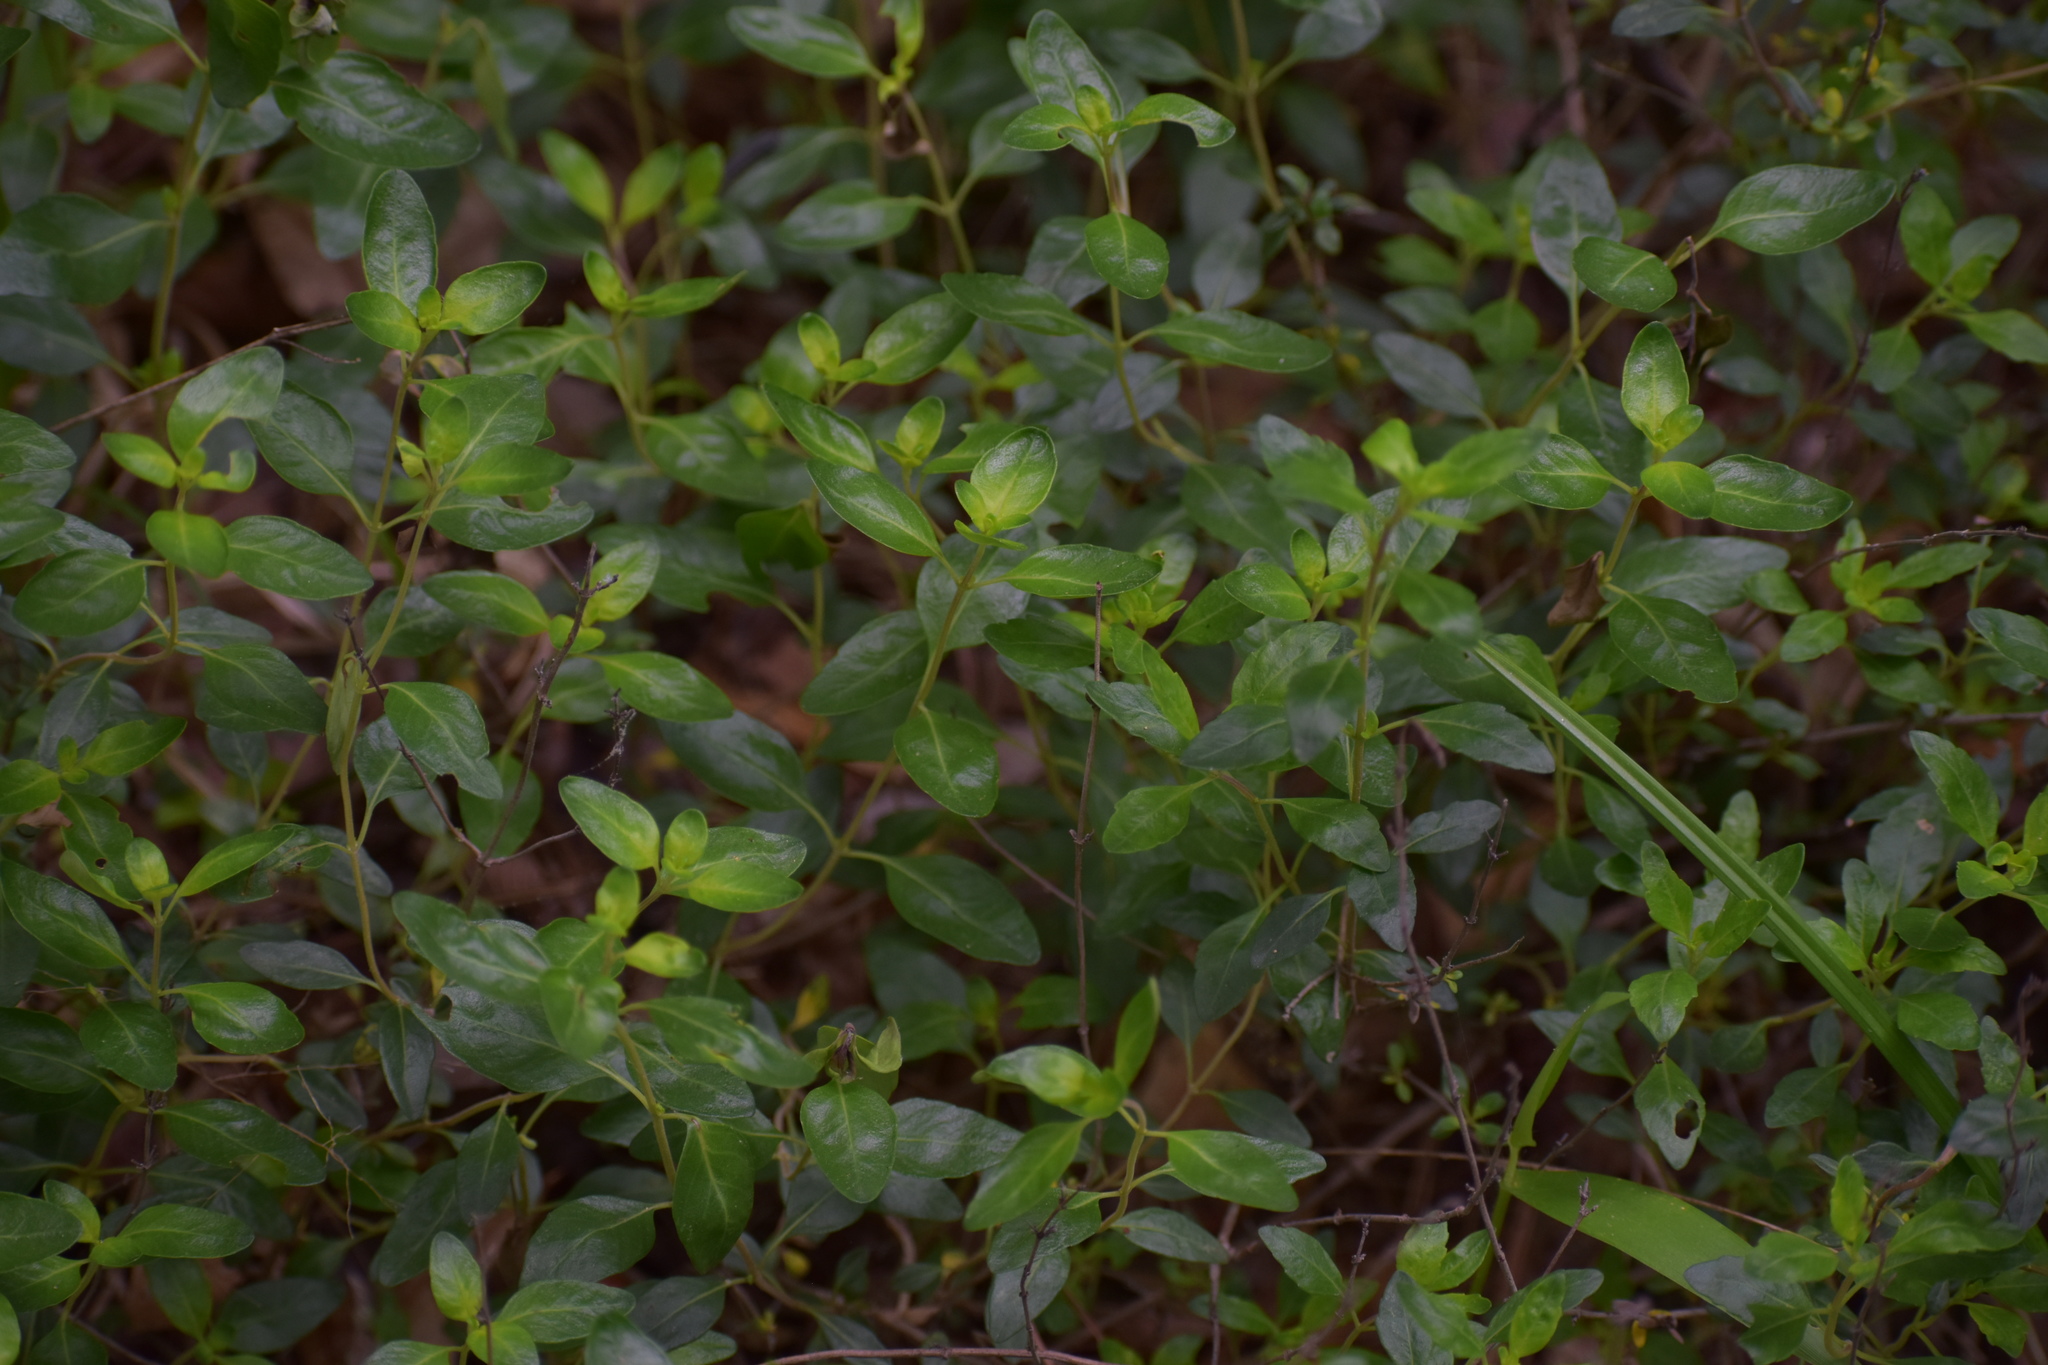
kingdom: Plantae
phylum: Tracheophyta
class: Magnoliopsida
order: Lamiales
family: Lamiaceae
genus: Clinopodium
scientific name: Clinopodium carolinianum
